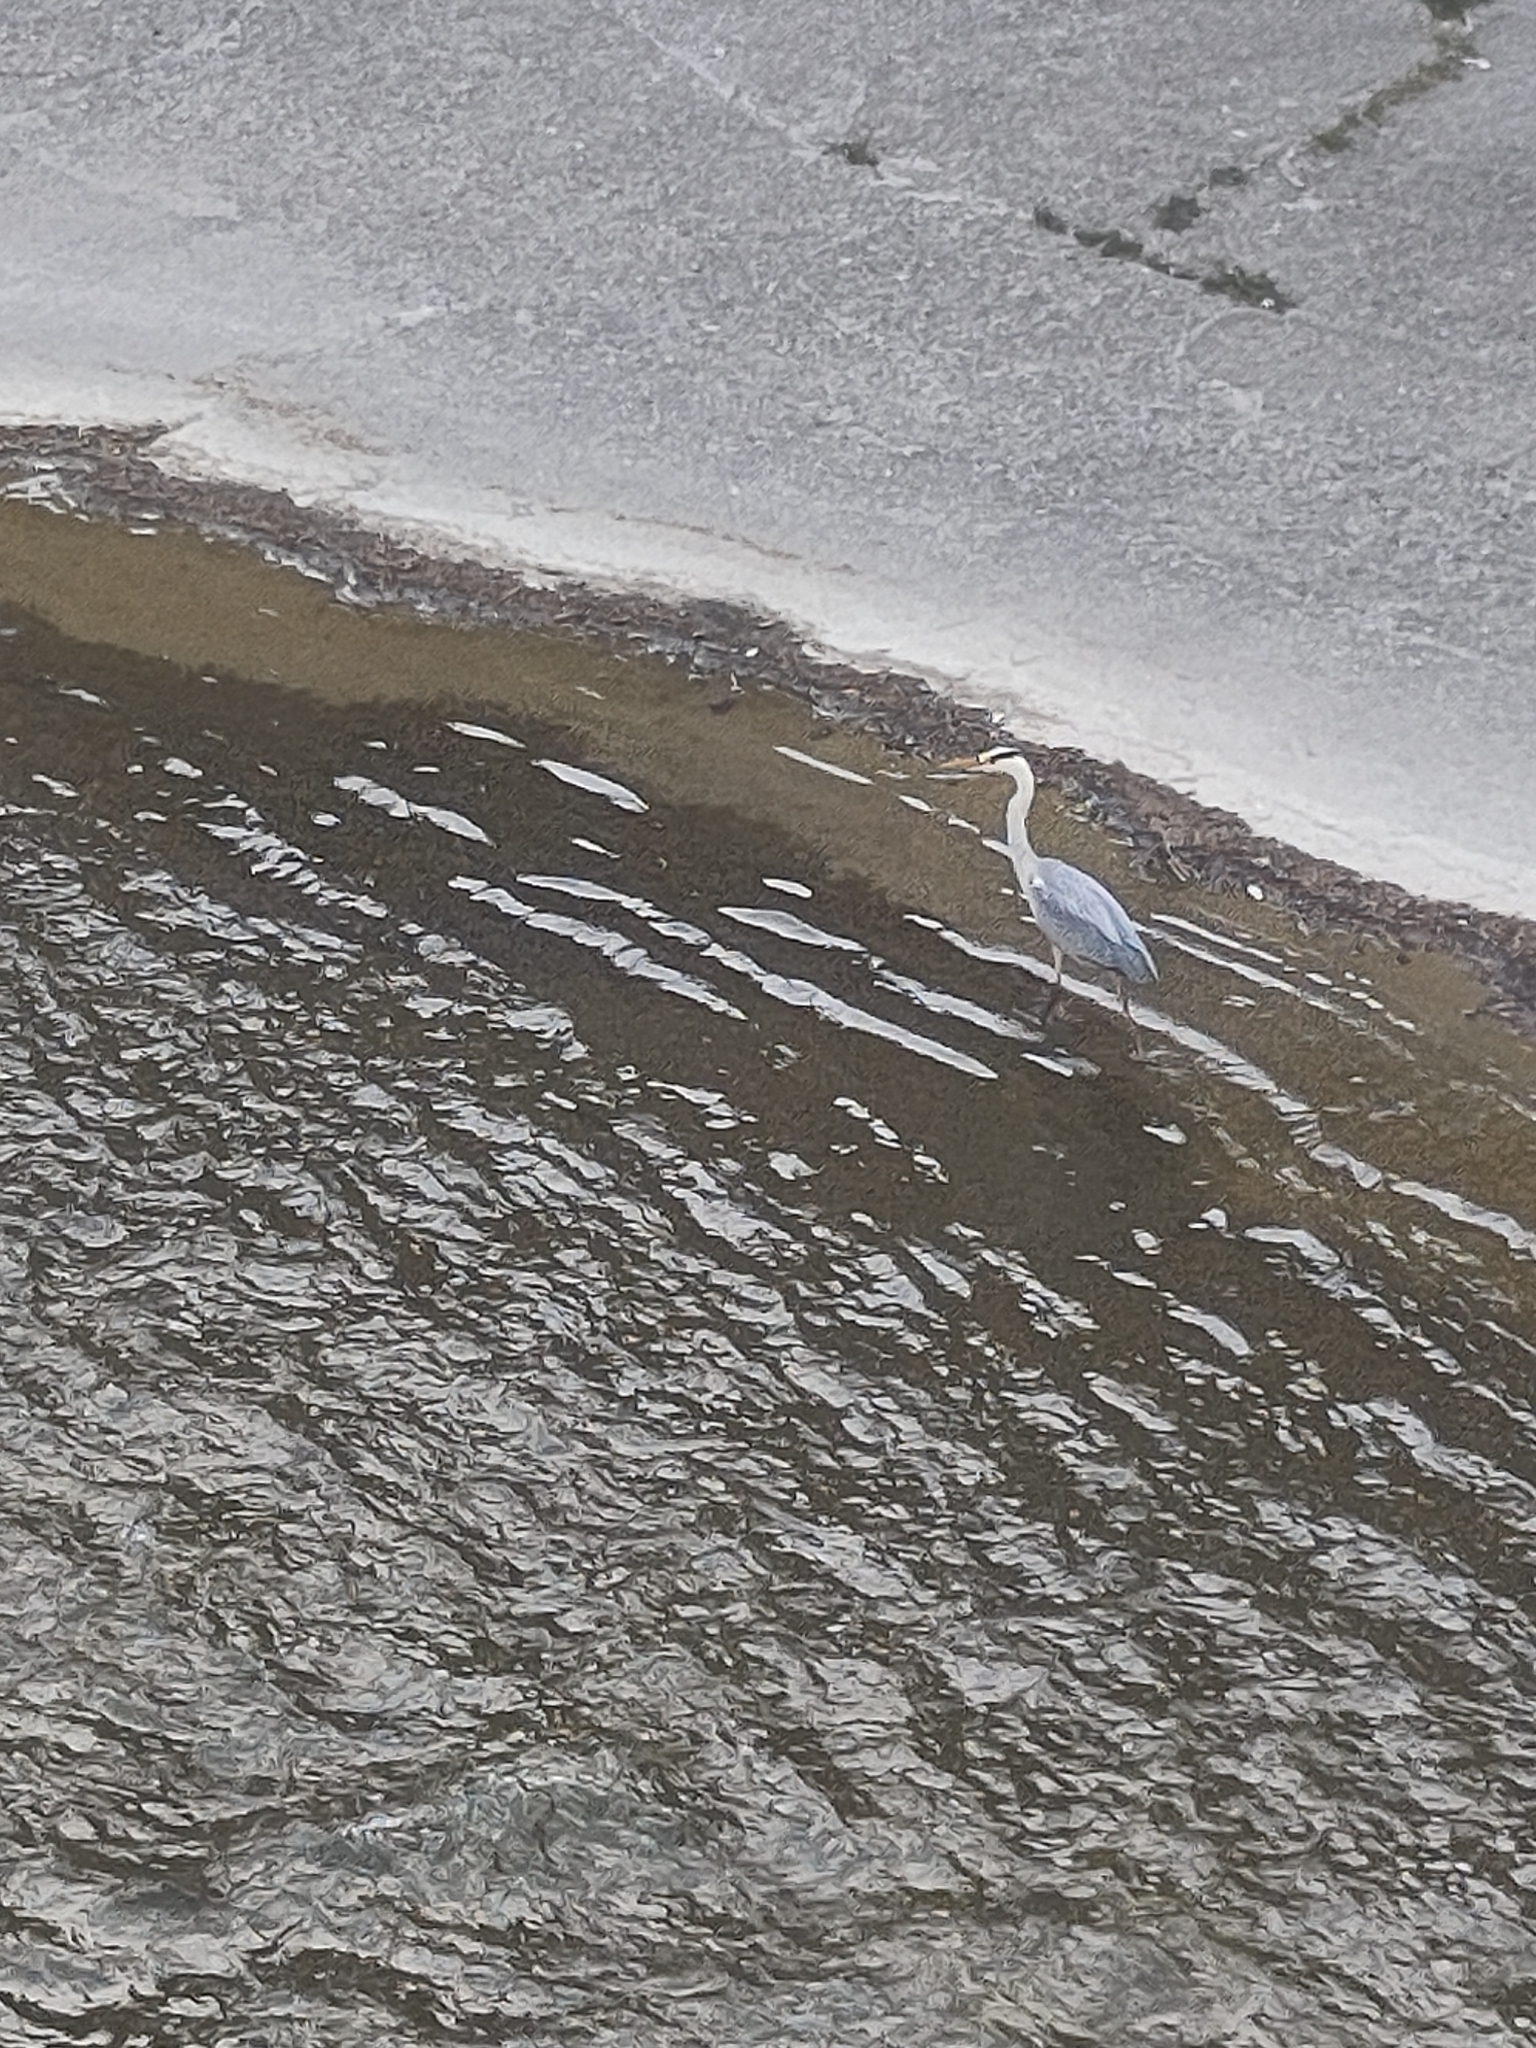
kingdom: Animalia
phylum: Chordata
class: Aves
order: Pelecaniformes
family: Ardeidae
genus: Ardea
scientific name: Ardea cinerea
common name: Grey heron
